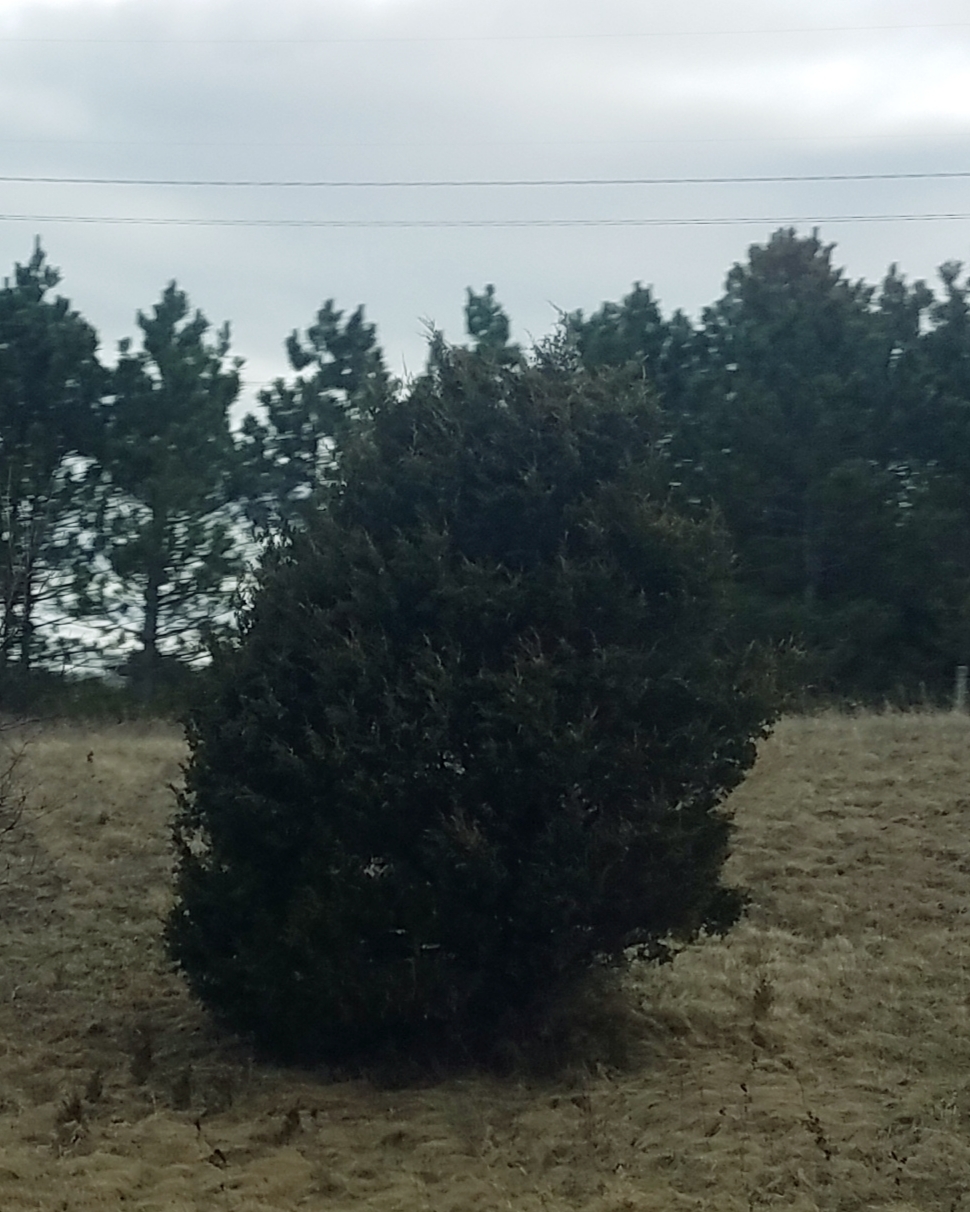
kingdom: Plantae
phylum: Tracheophyta
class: Pinopsida
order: Pinales
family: Cupressaceae
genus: Juniperus
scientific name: Juniperus virginiana
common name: Red juniper
